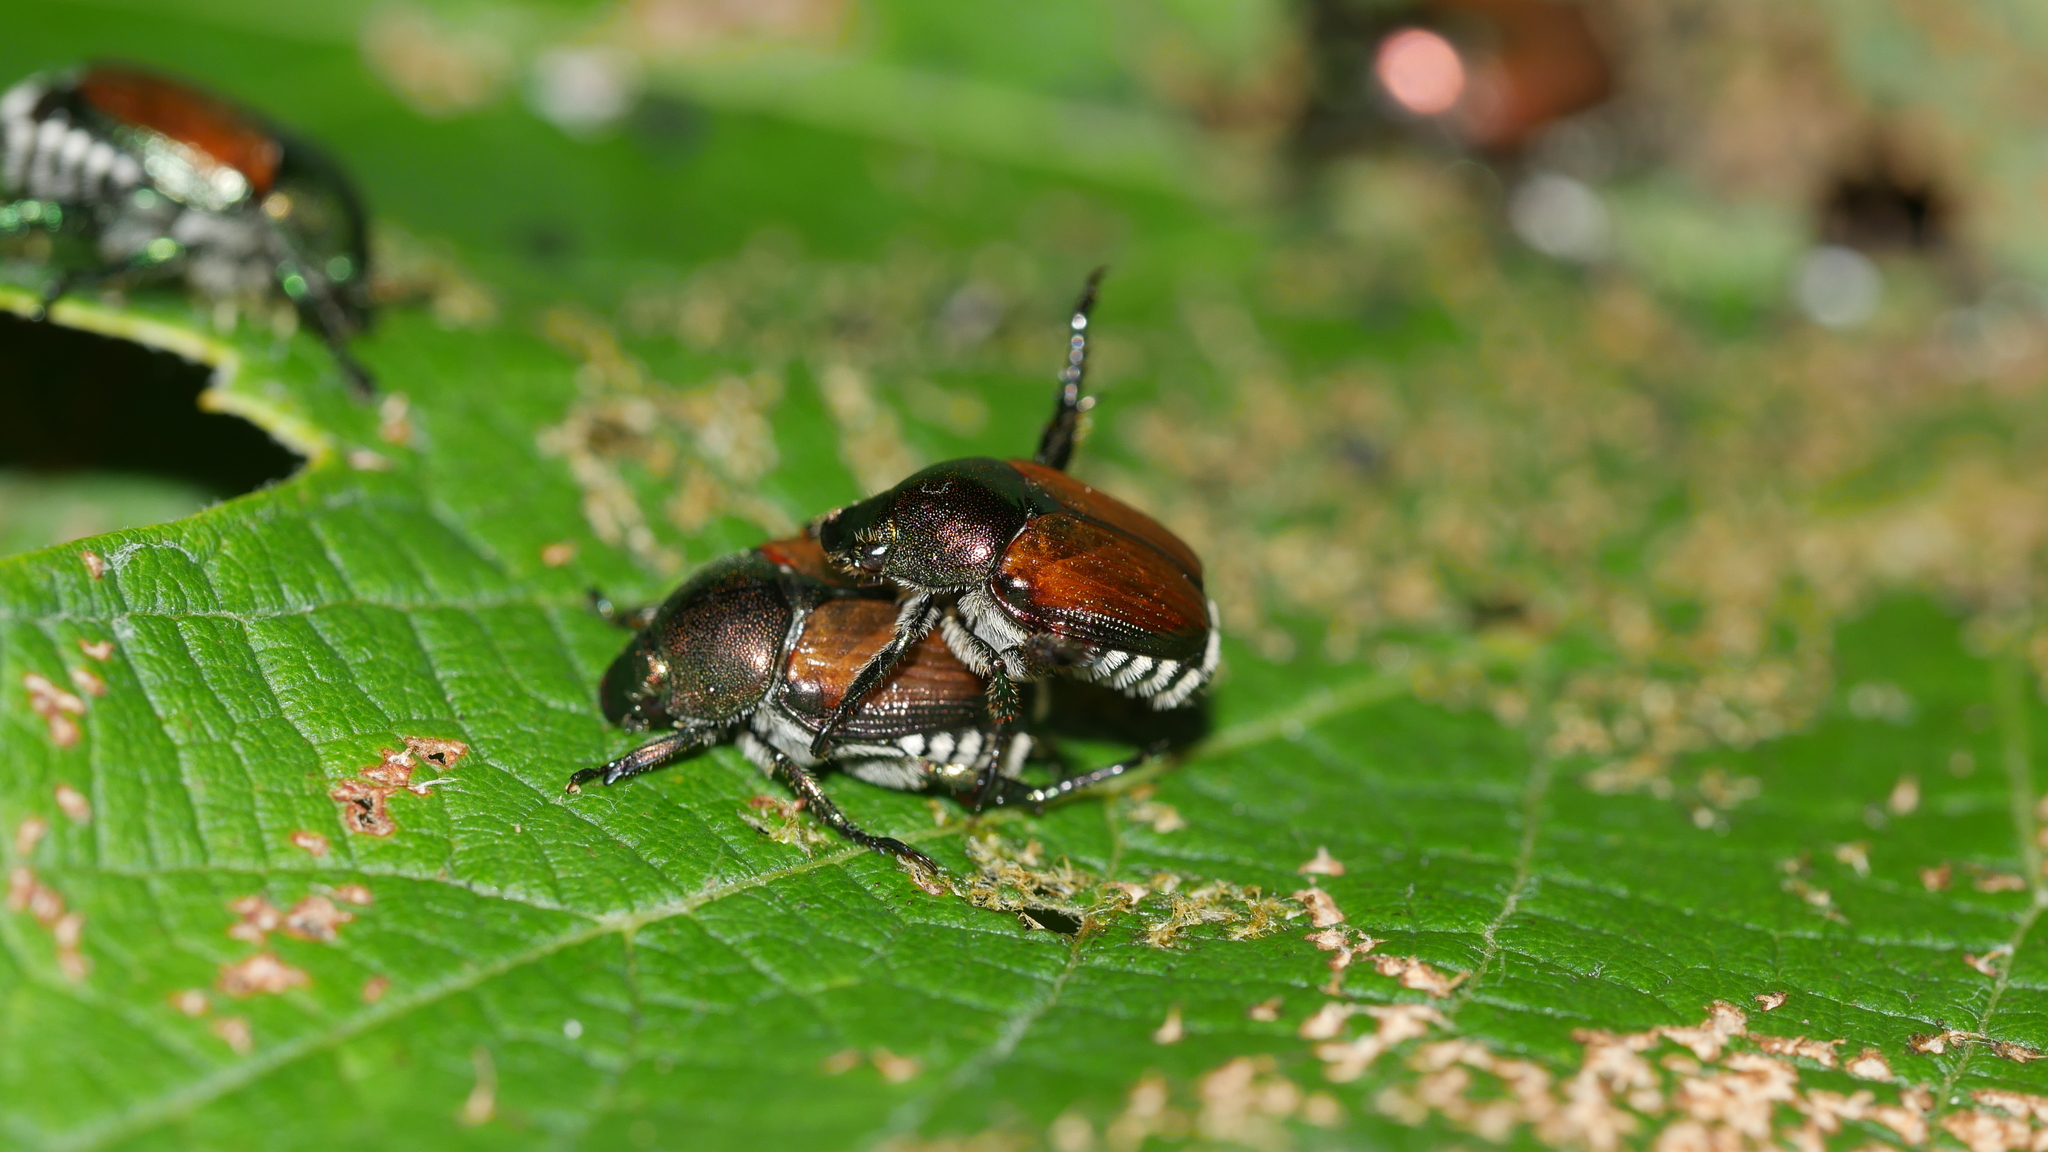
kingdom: Animalia
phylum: Arthropoda
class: Insecta
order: Coleoptera
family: Scarabaeidae
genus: Popillia
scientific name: Popillia japonica
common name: Japanese beetle
